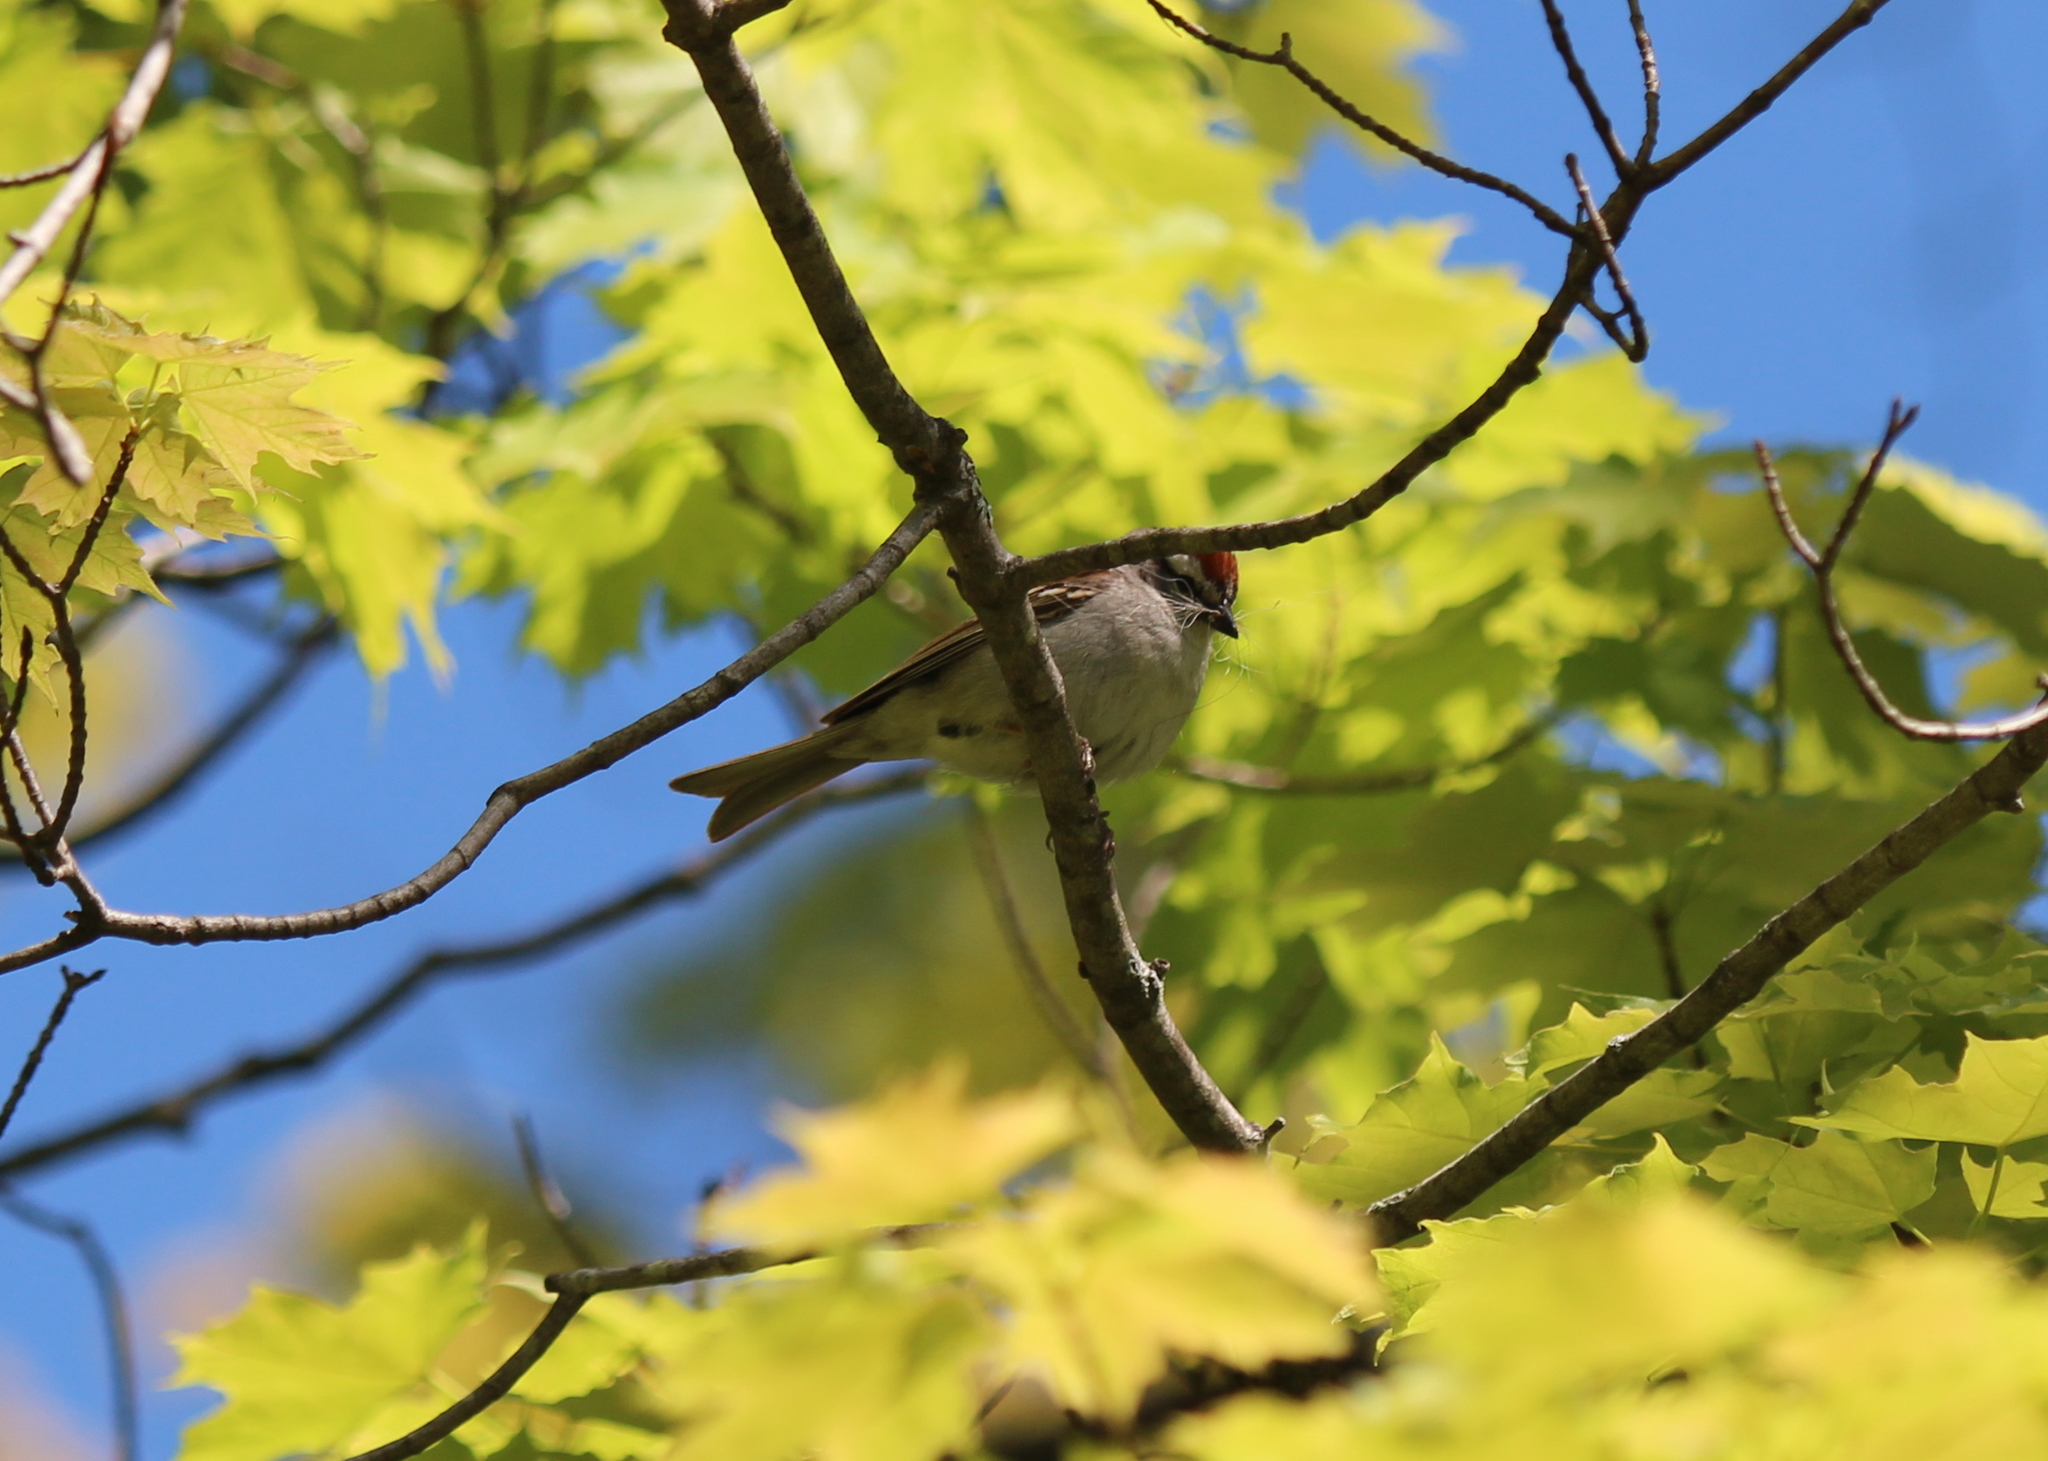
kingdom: Animalia
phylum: Chordata
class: Aves
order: Passeriformes
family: Passerellidae
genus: Spizella
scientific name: Spizella passerina
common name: Chipping sparrow
